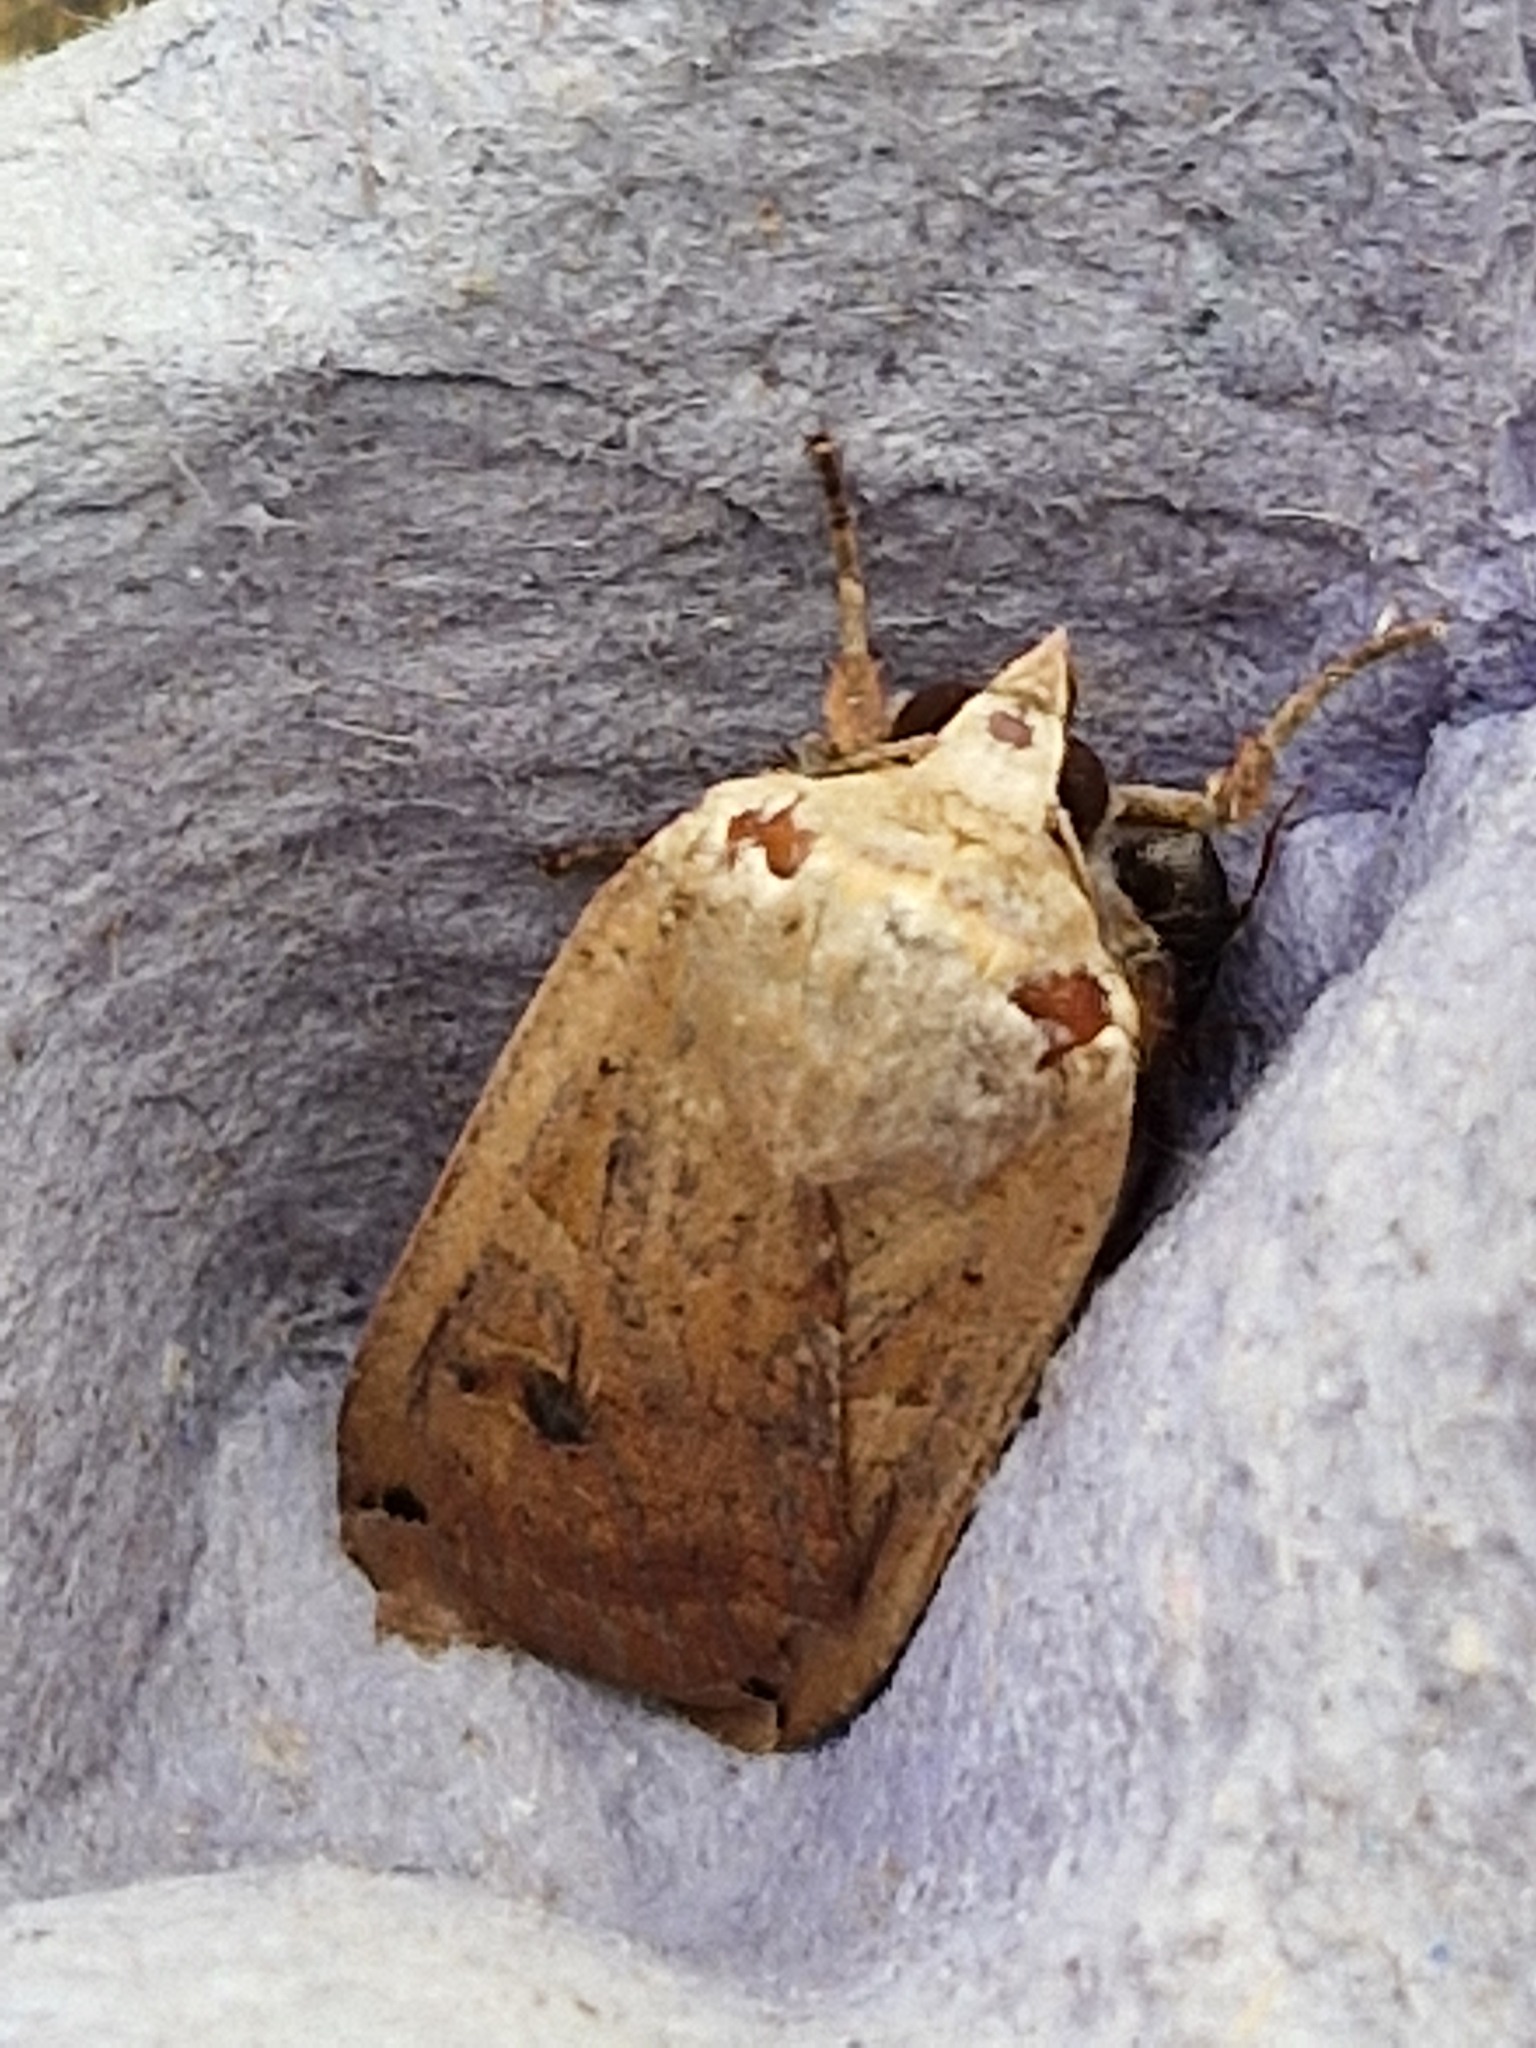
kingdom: Animalia
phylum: Arthropoda
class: Insecta
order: Lepidoptera
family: Noctuidae
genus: Noctua
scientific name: Noctua pronuba
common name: Large yellow underwing
